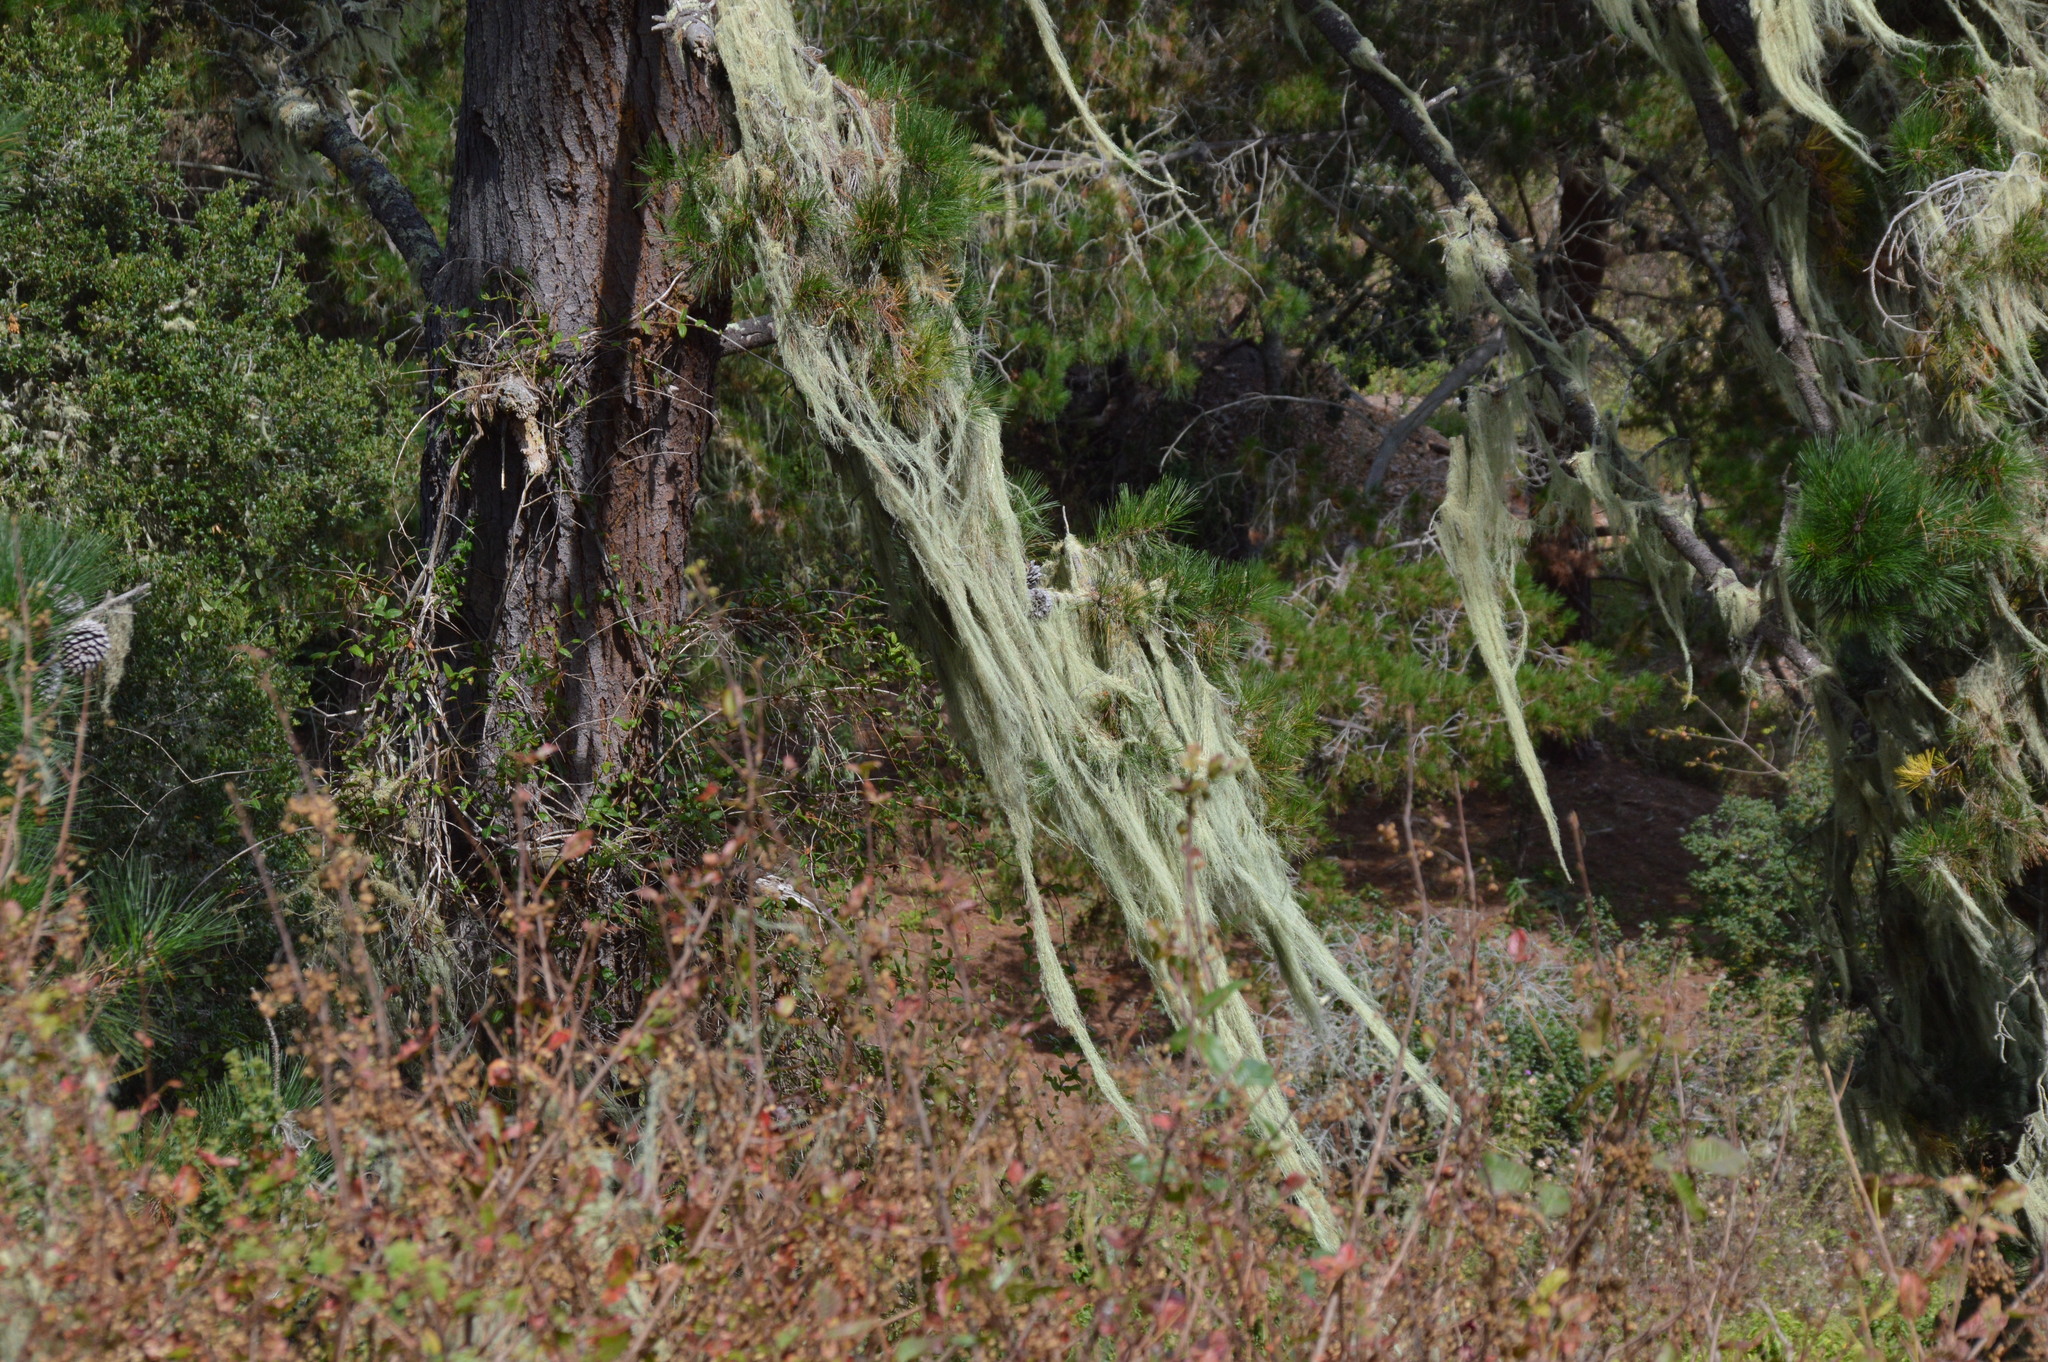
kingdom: Fungi
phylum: Ascomycota
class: Lecanoromycetes
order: Lecanorales
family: Ramalinaceae
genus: Ramalina
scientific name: Ramalina menziesii
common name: Lace lichen
